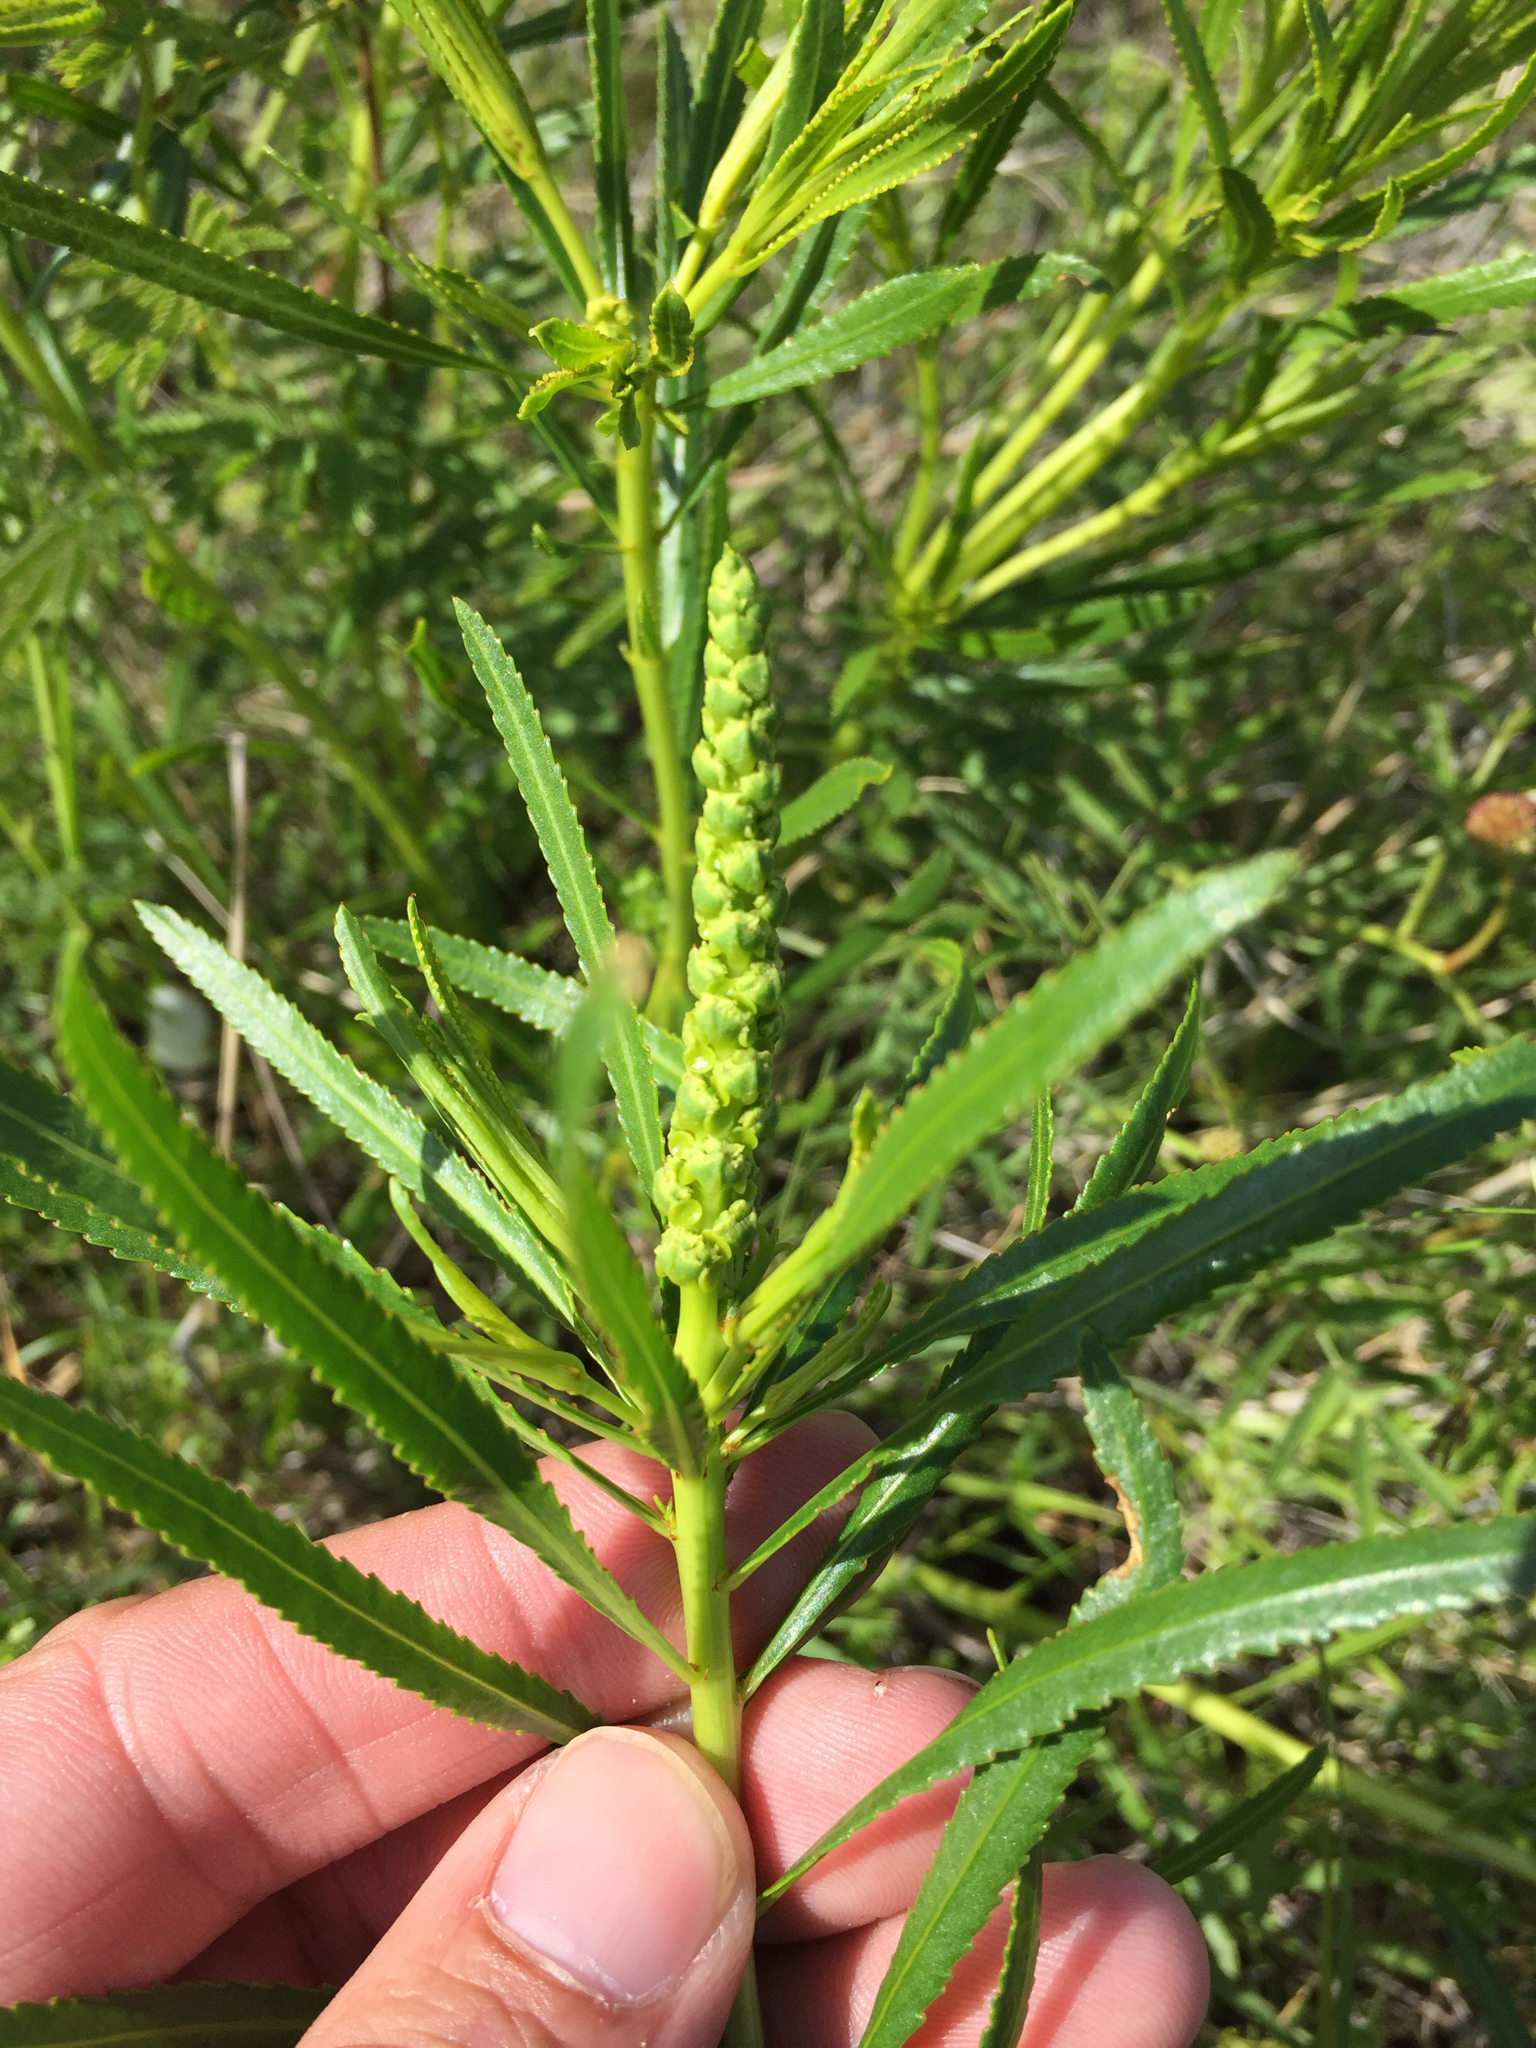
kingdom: Plantae
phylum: Tracheophyta
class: Magnoliopsida
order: Malpighiales
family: Euphorbiaceae
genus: Stillingia
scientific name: Stillingia texana
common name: Texas stillingia
